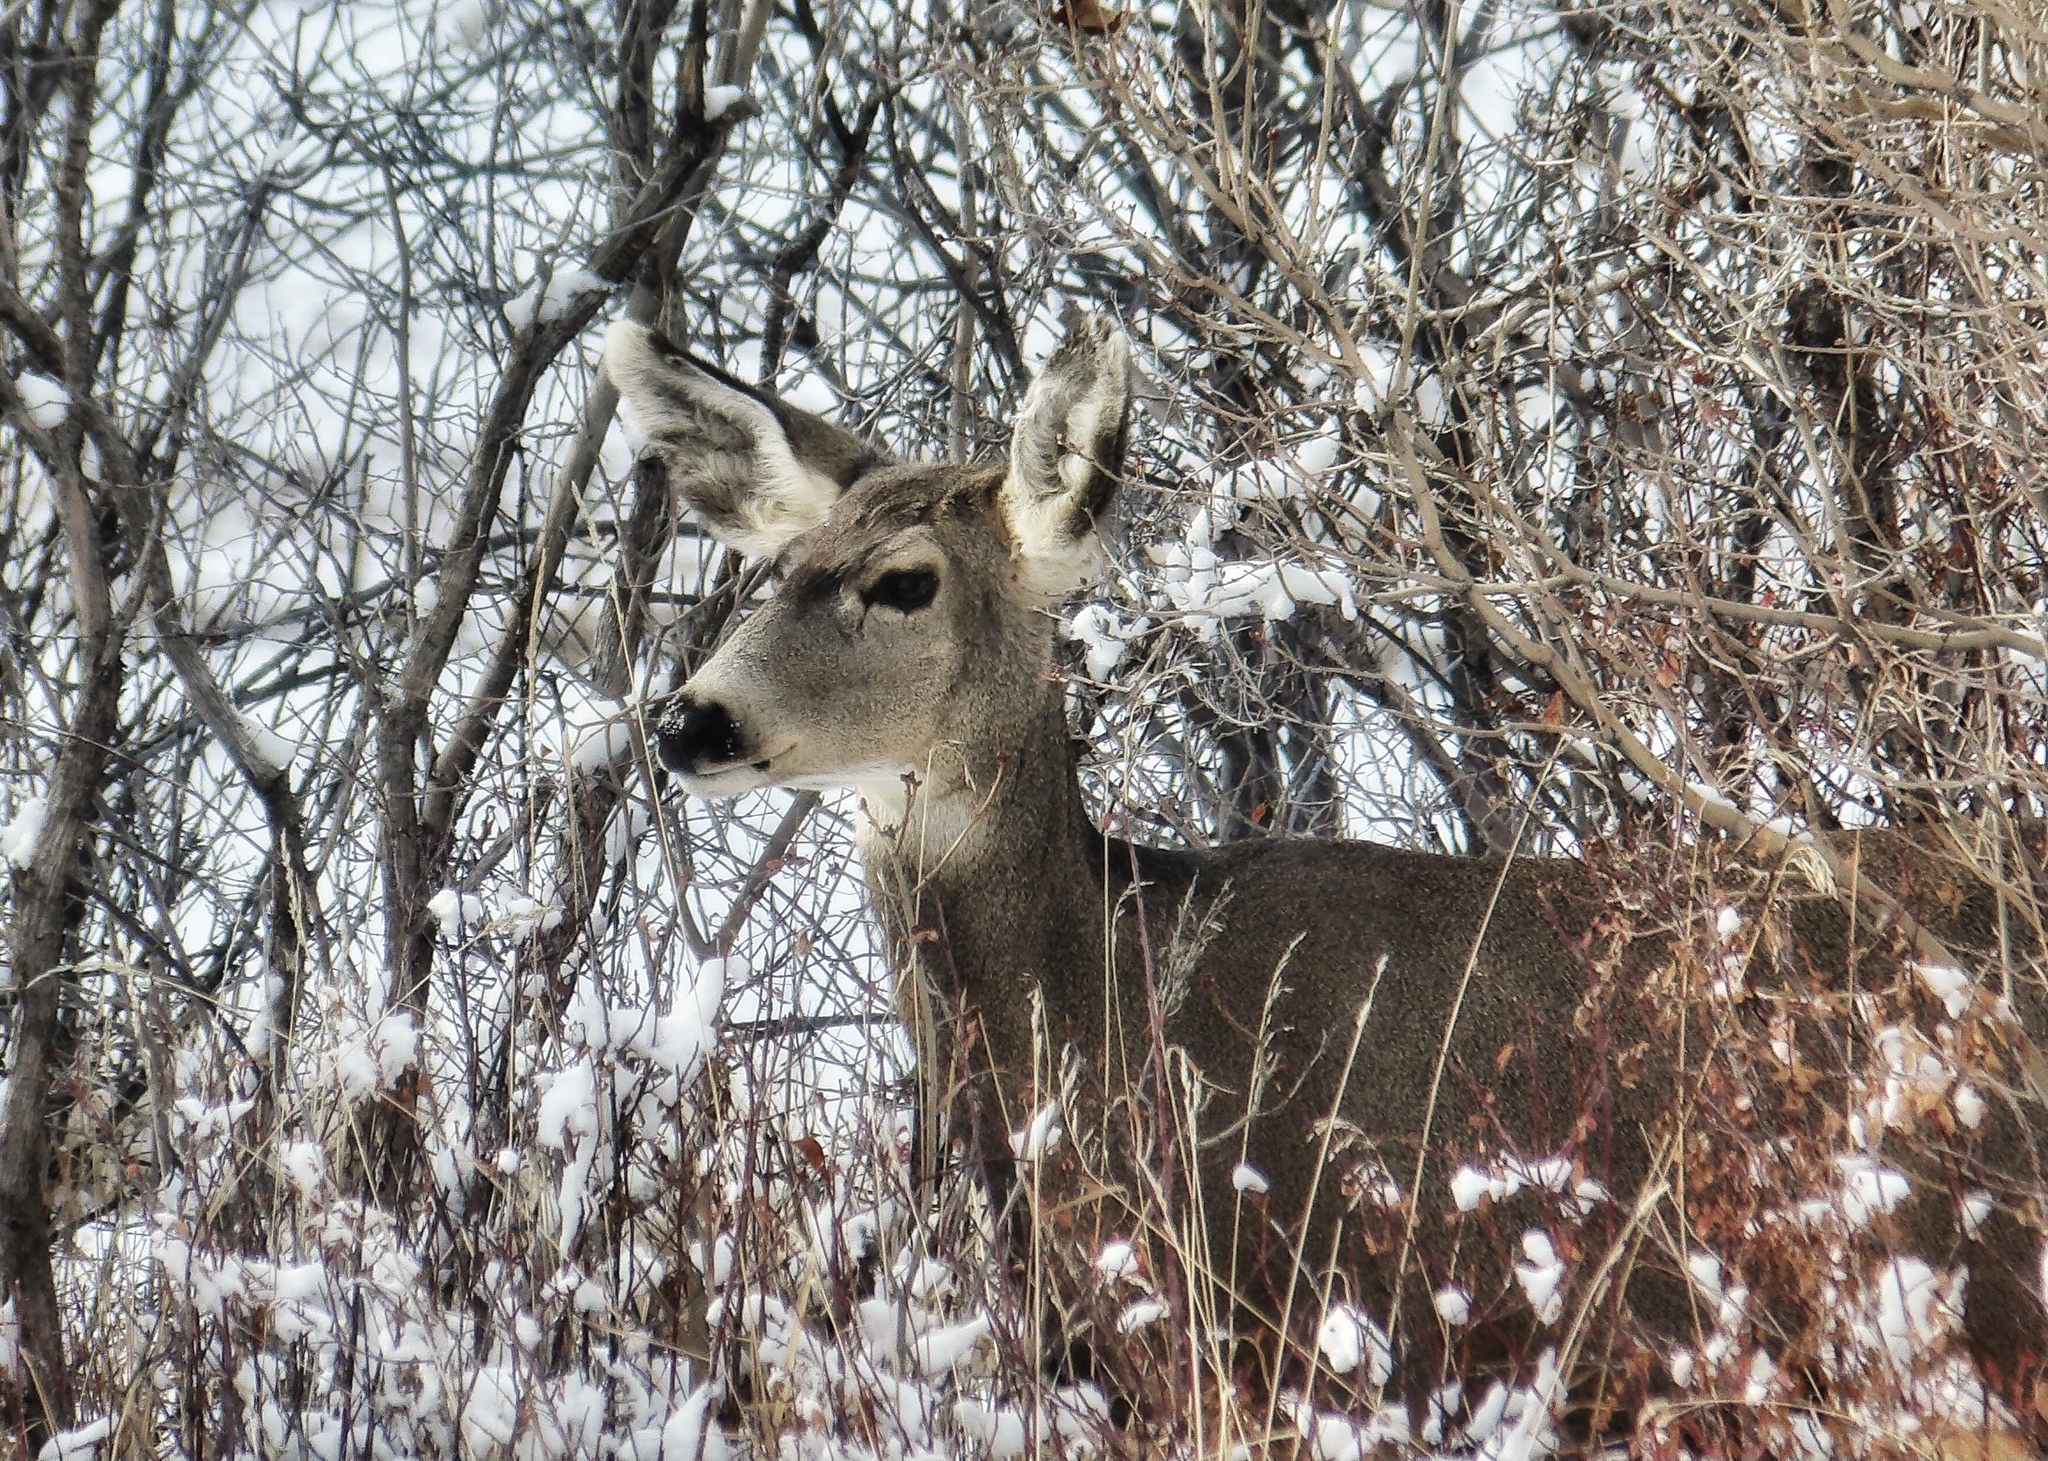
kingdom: Animalia
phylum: Chordata
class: Mammalia
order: Artiodactyla
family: Cervidae
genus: Odocoileus
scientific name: Odocoileus hemionus
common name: Mule deer
